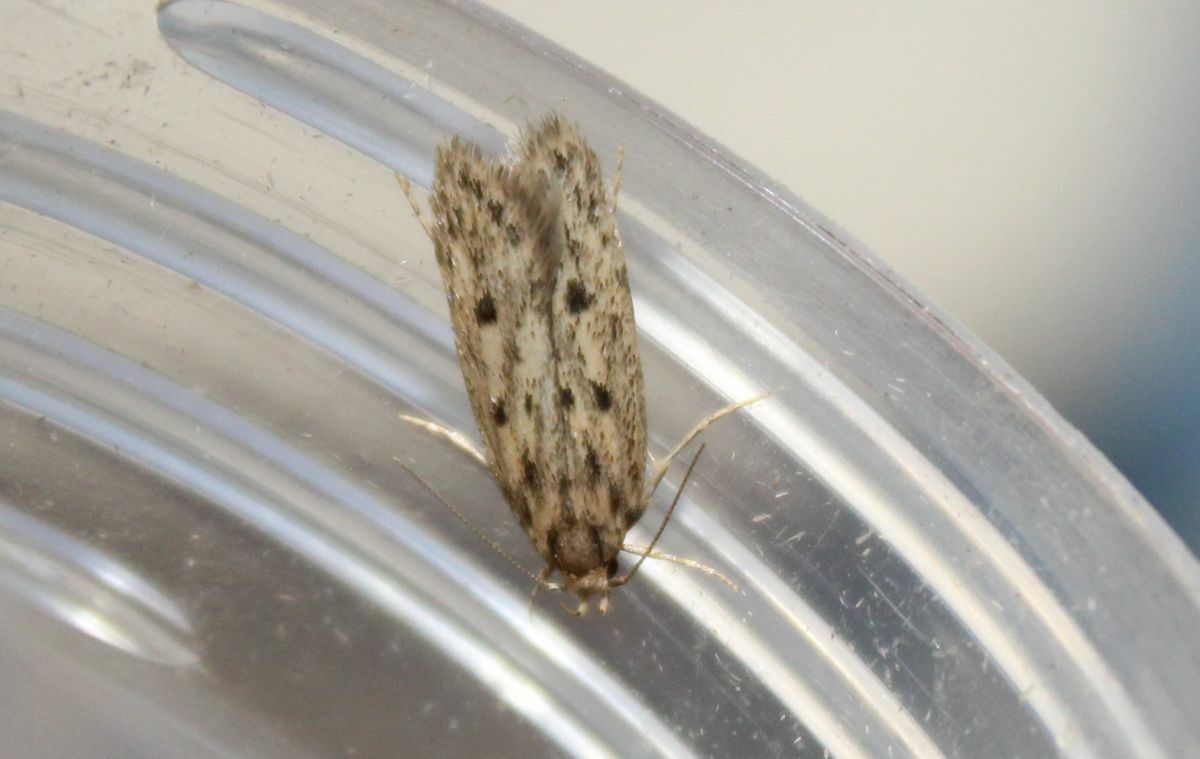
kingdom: Animalia
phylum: Arthropoda
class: Insecta
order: Lepidoptera
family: Oecophoridae
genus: Hofmannophila
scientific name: Hofmannophila pseudospretella
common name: Brown house moth
